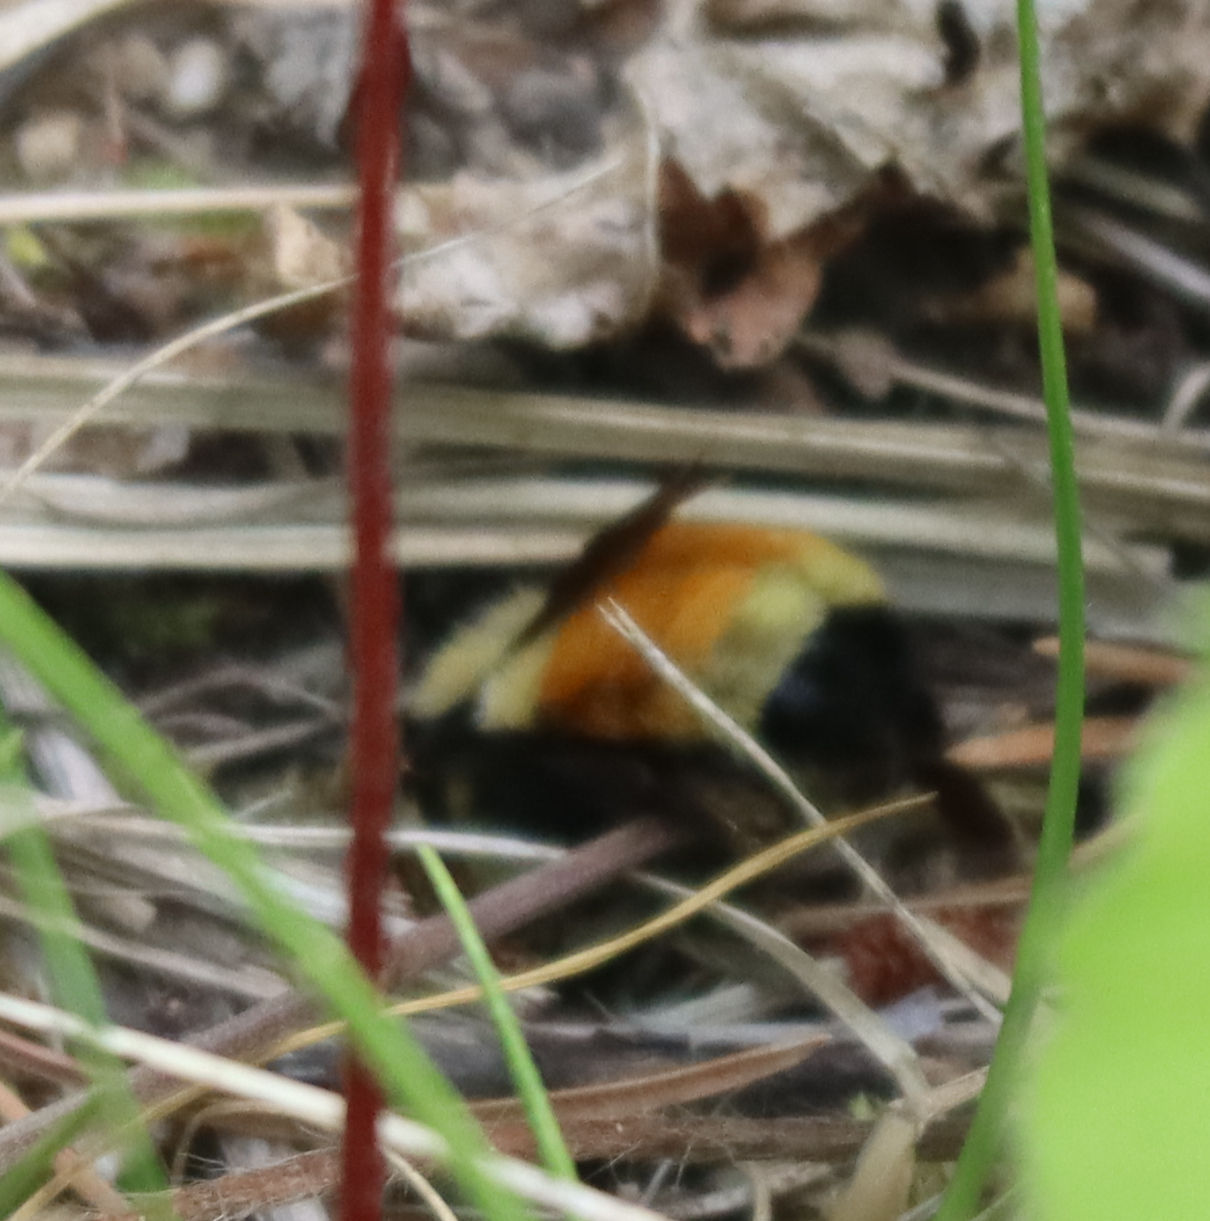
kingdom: Animalia
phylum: Arthropoda
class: Insecta
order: Hymenoptera
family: Apidae
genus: Bombus
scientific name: Bombus ternarius
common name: Tri-colored bumble bee
